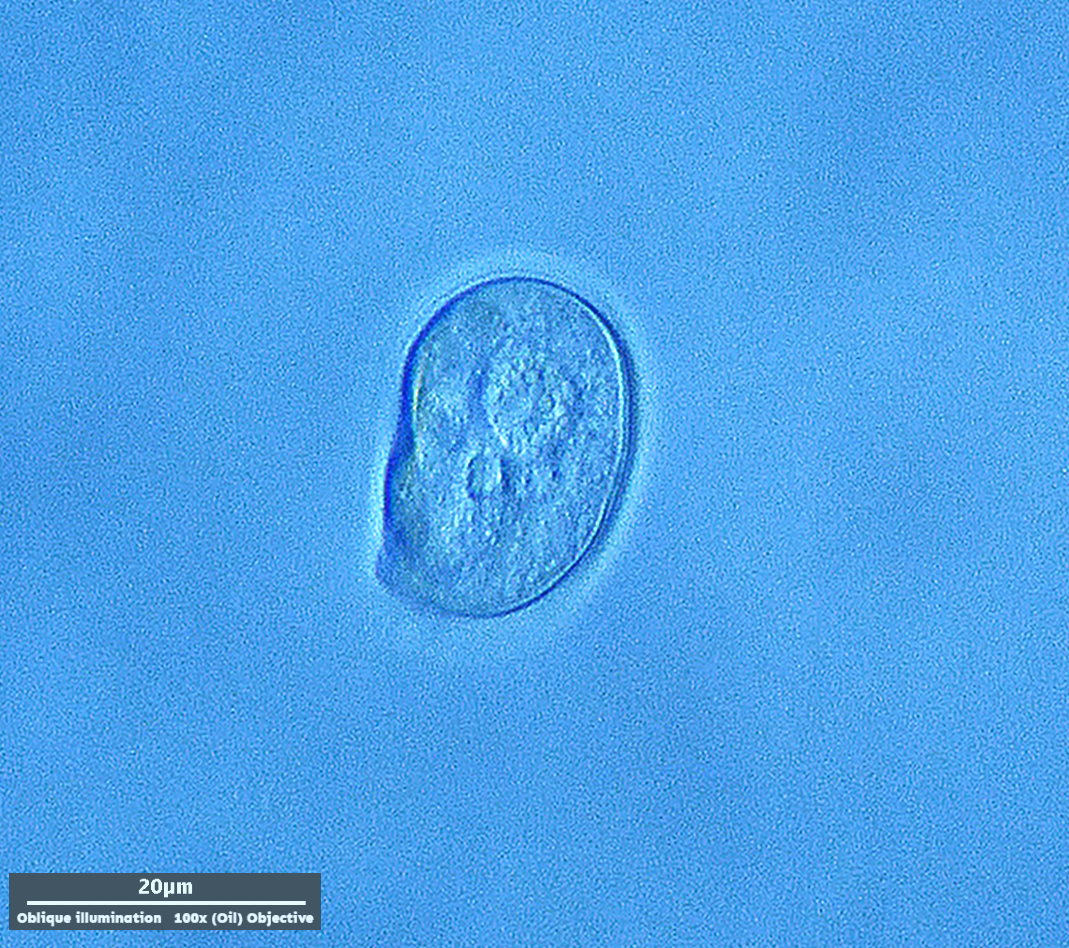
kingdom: Chromista
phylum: Ciliophora
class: Cyrtophoria
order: Cyrtophorida
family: Chilodonellidae
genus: Chilodonella
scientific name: Chilodonella uncinata
